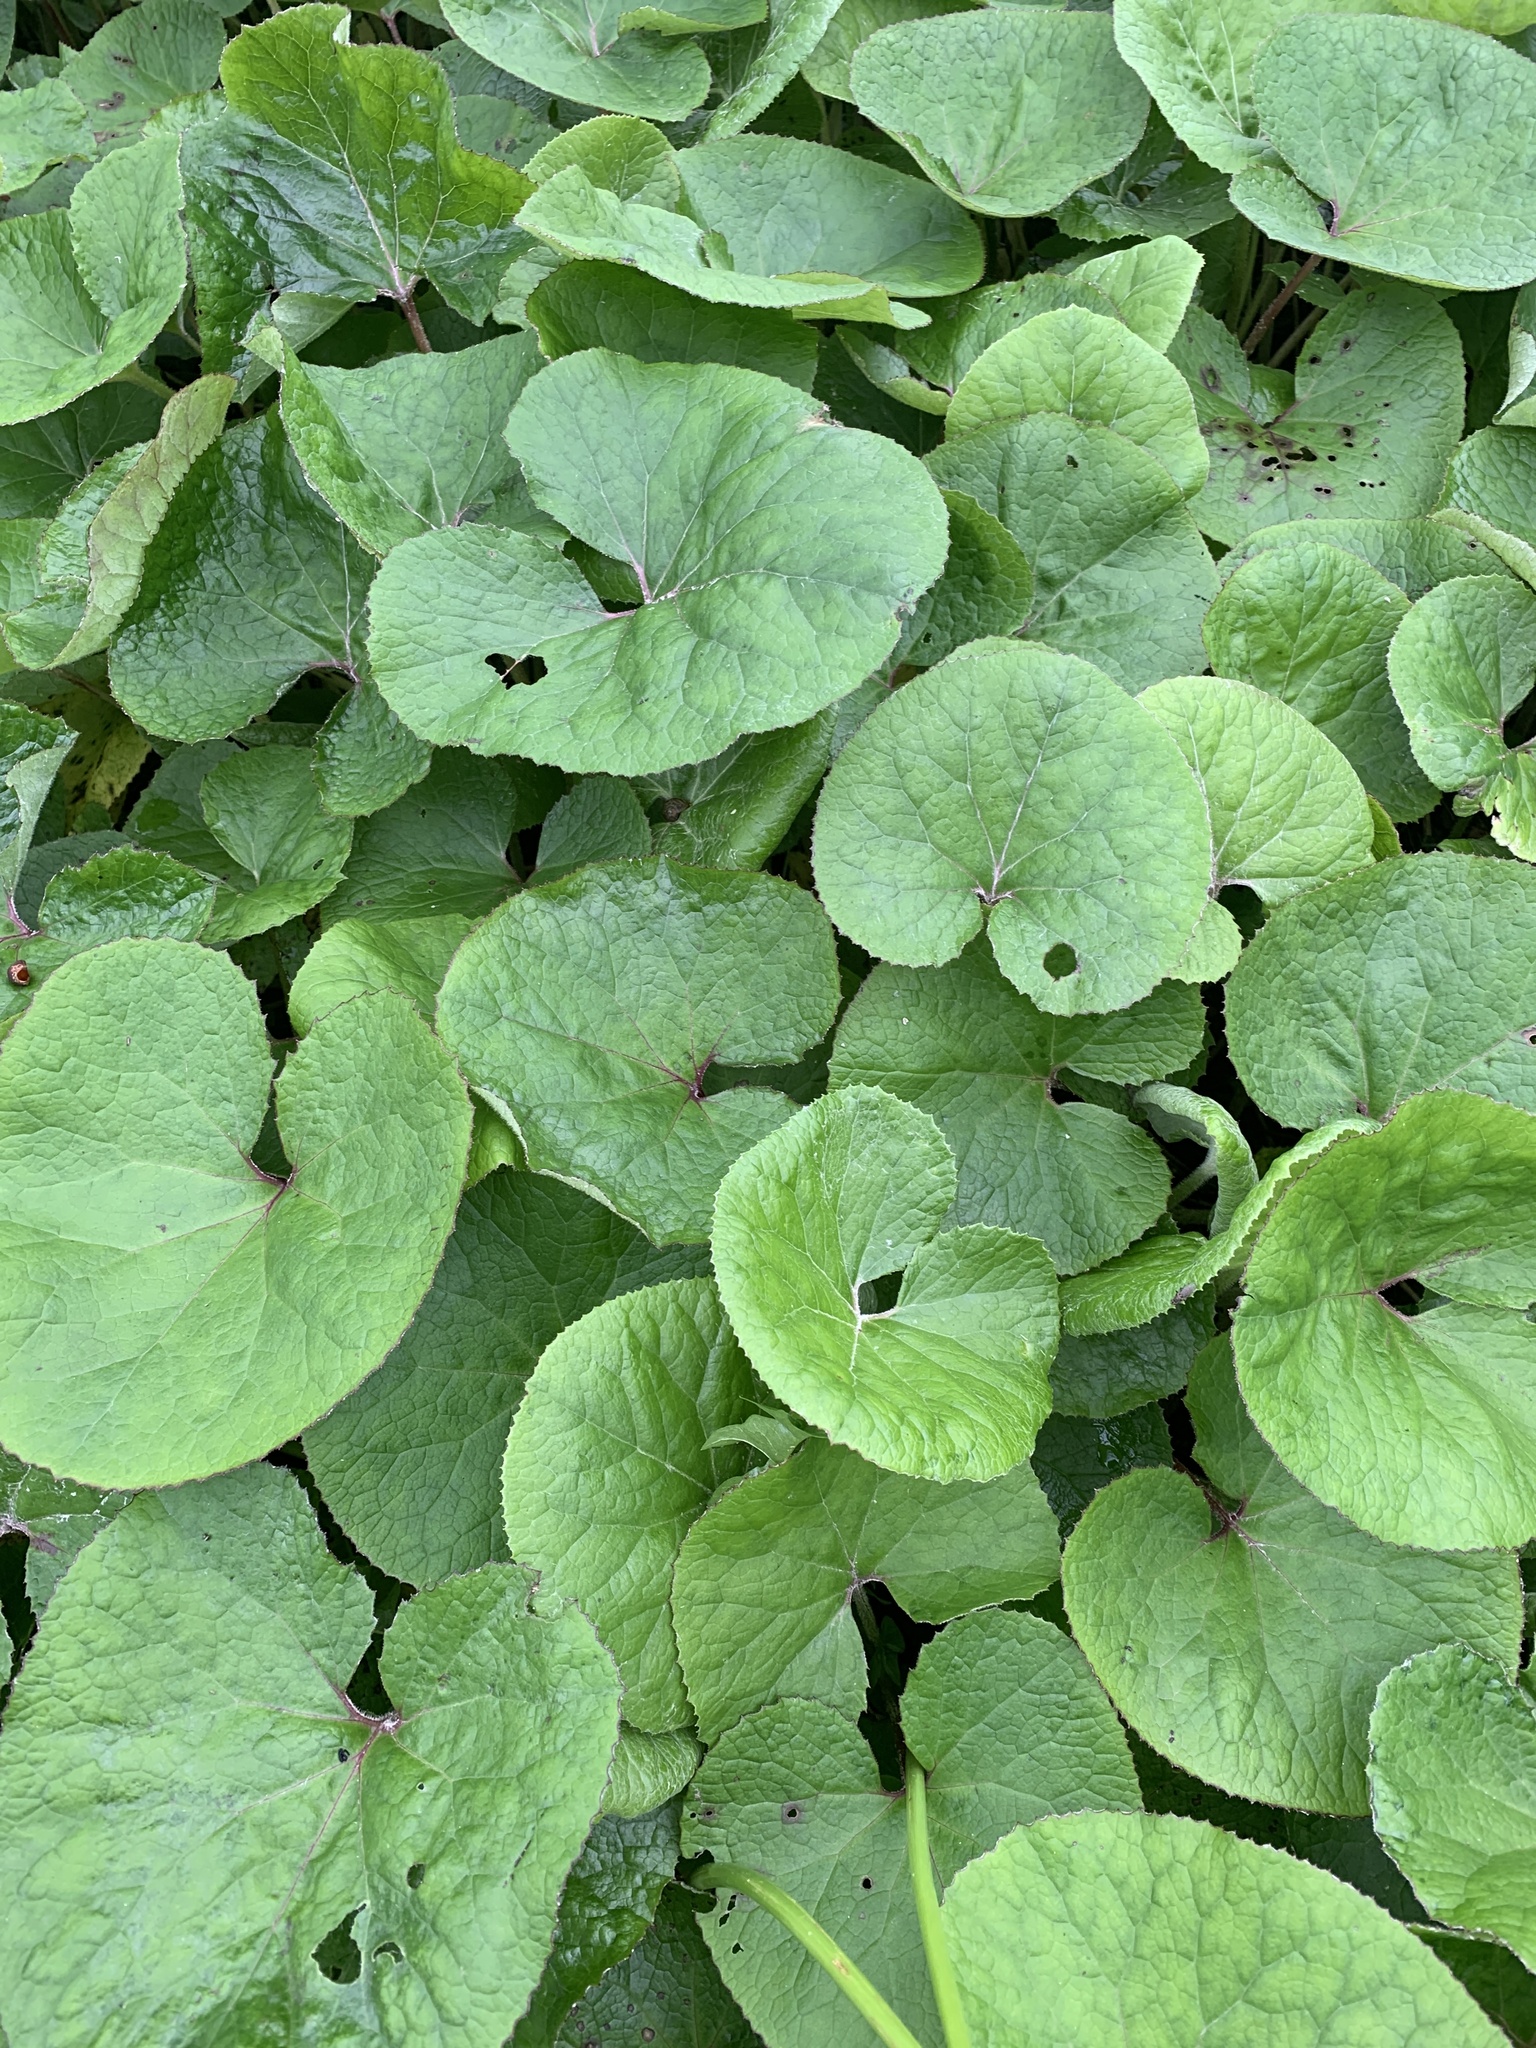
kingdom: Plantae
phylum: Tracheophyta
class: Magnoliopsida
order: Asterales
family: Asteraceae
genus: Petasites
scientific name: Petasites pyrenaicus
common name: Winter heliotrope
